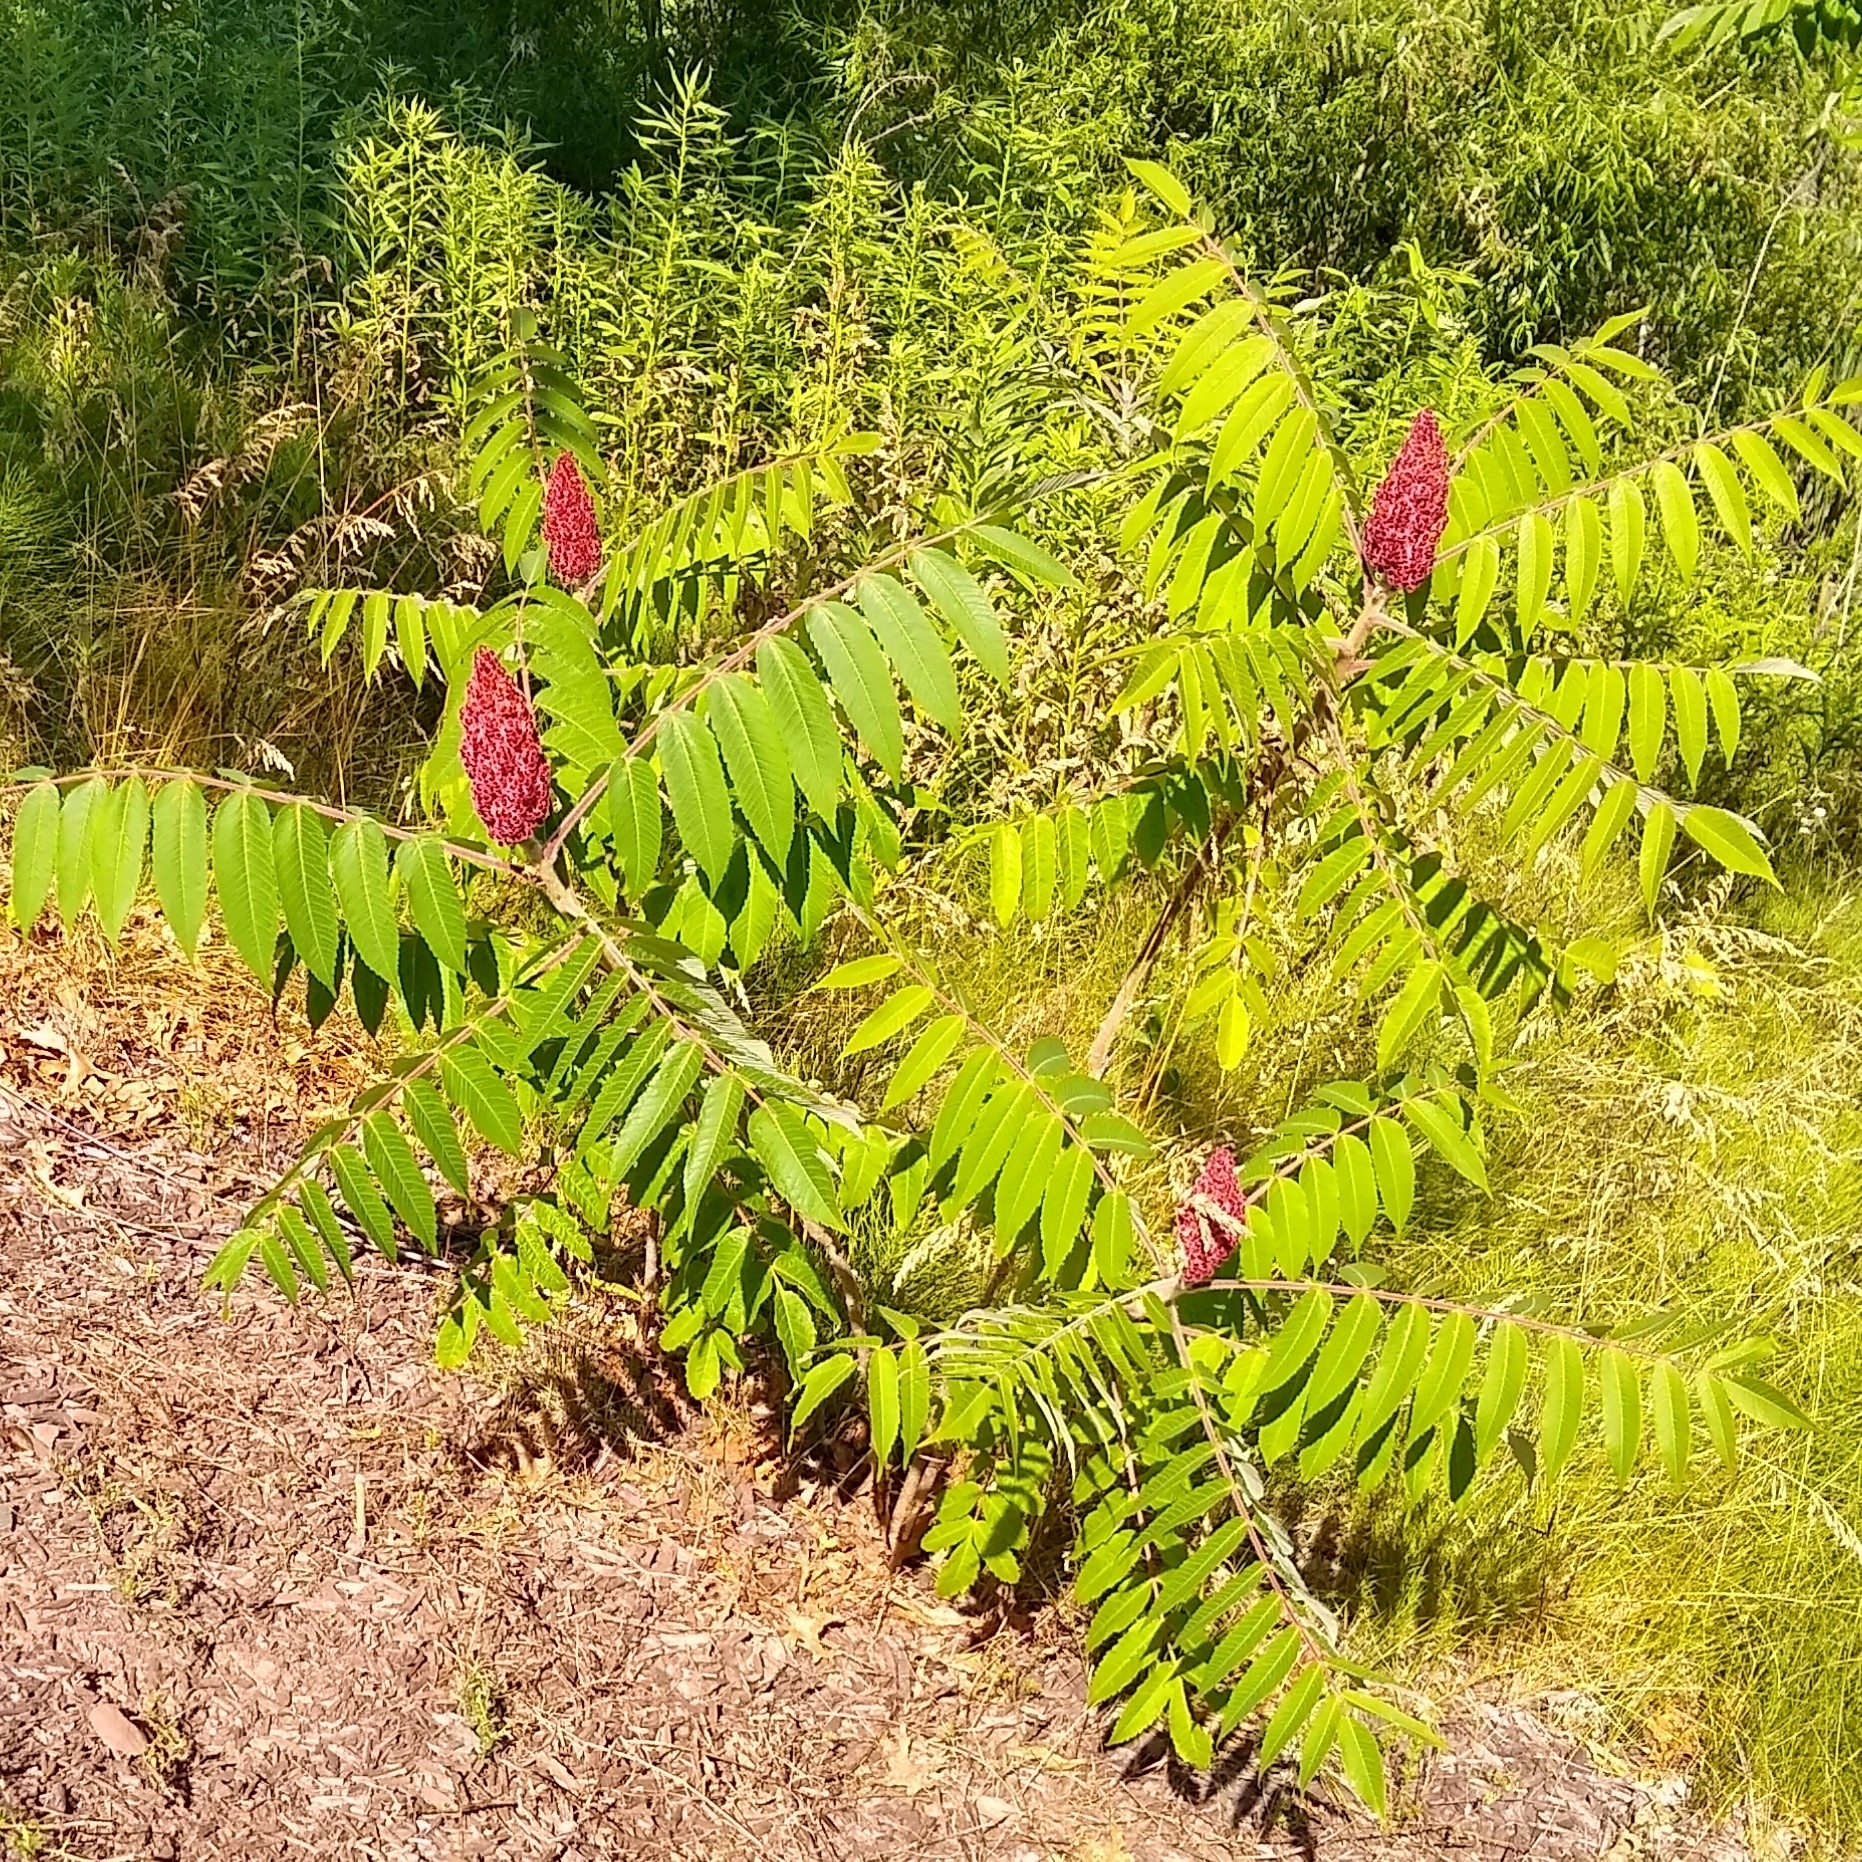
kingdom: Plantae
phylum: Tracheophyta
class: Magnoliopsida
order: Sapindales
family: Anacardiaceae
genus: Rhus
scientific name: Rhus typhina
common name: Staghorn sumac
